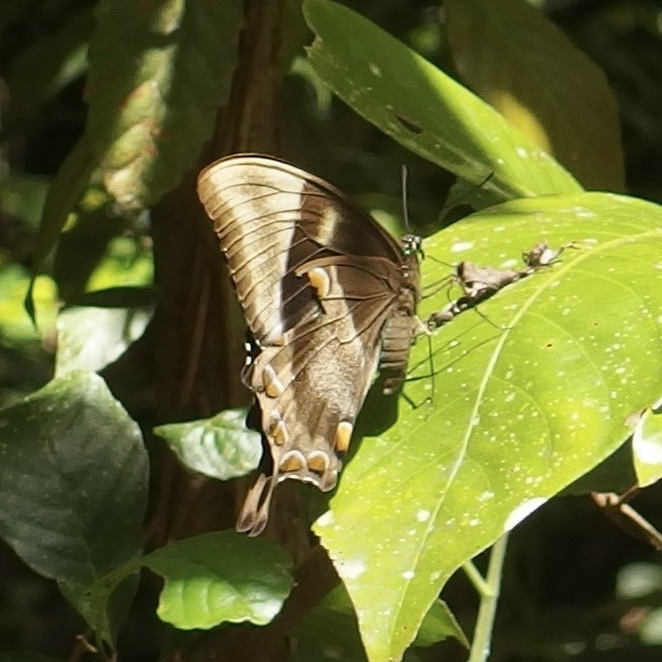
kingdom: Animalia
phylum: Arthropoda
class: Insecta
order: Lepidoptera
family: Papilionidae
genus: Papilio
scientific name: Papilio ulysses
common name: Blue emperor
